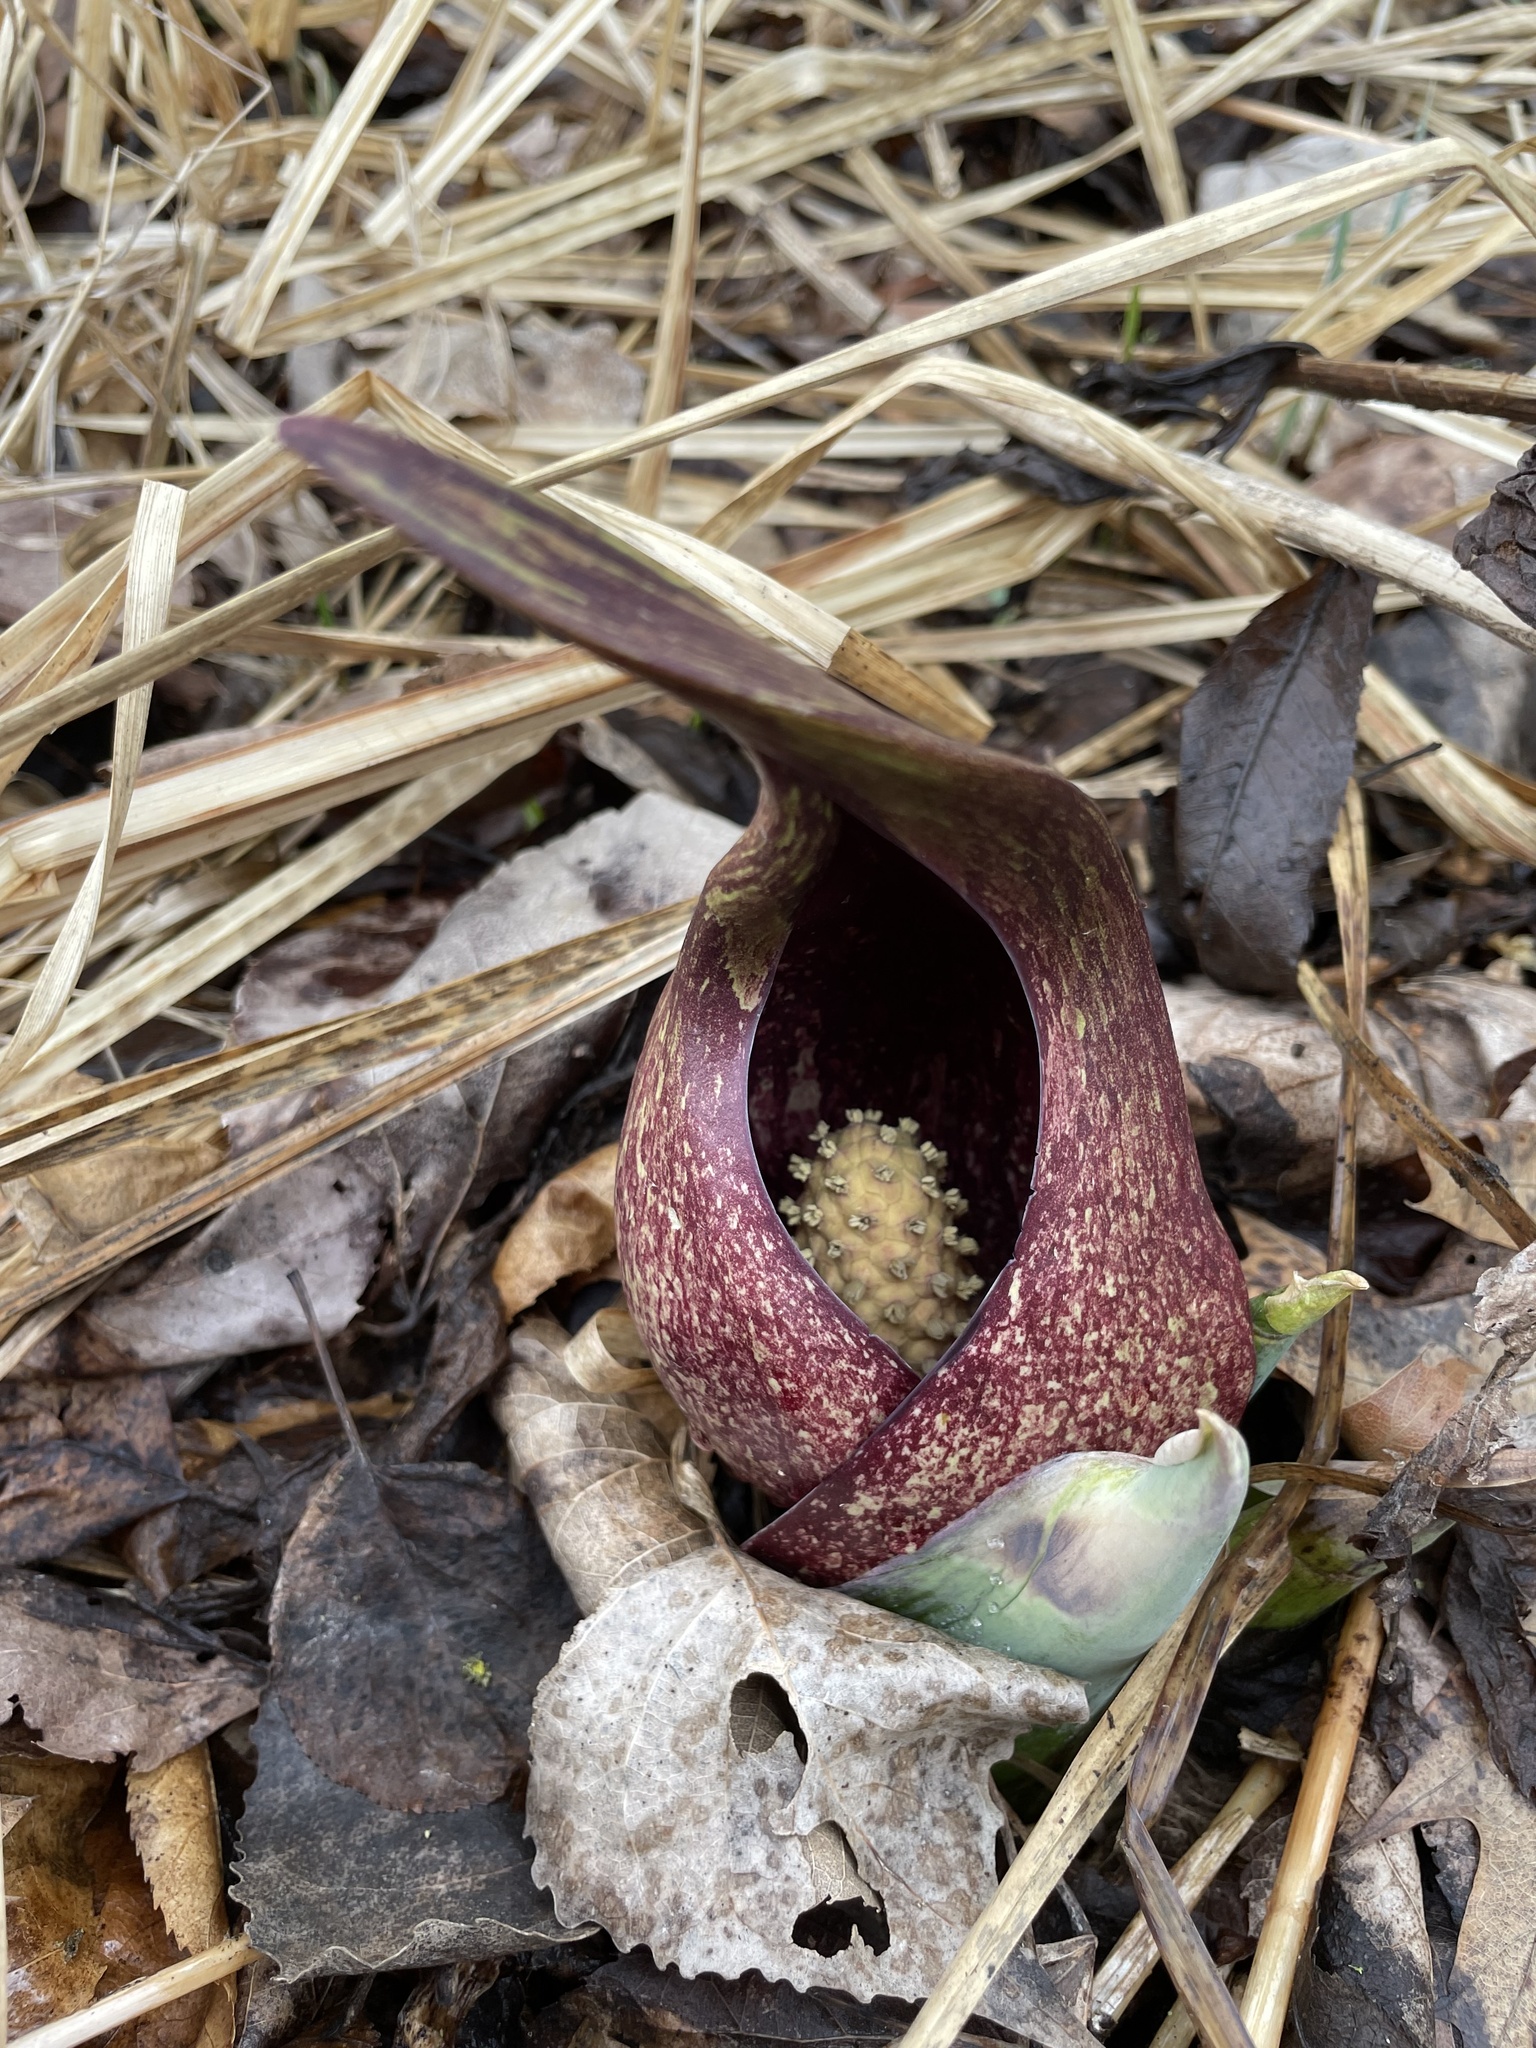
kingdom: Plantae
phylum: Tracheophyta
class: Liliopsida
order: Alismatales
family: Araceae
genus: Symplocarpus
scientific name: Symplocarpus foetidus
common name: Eastern skunk cabbage
